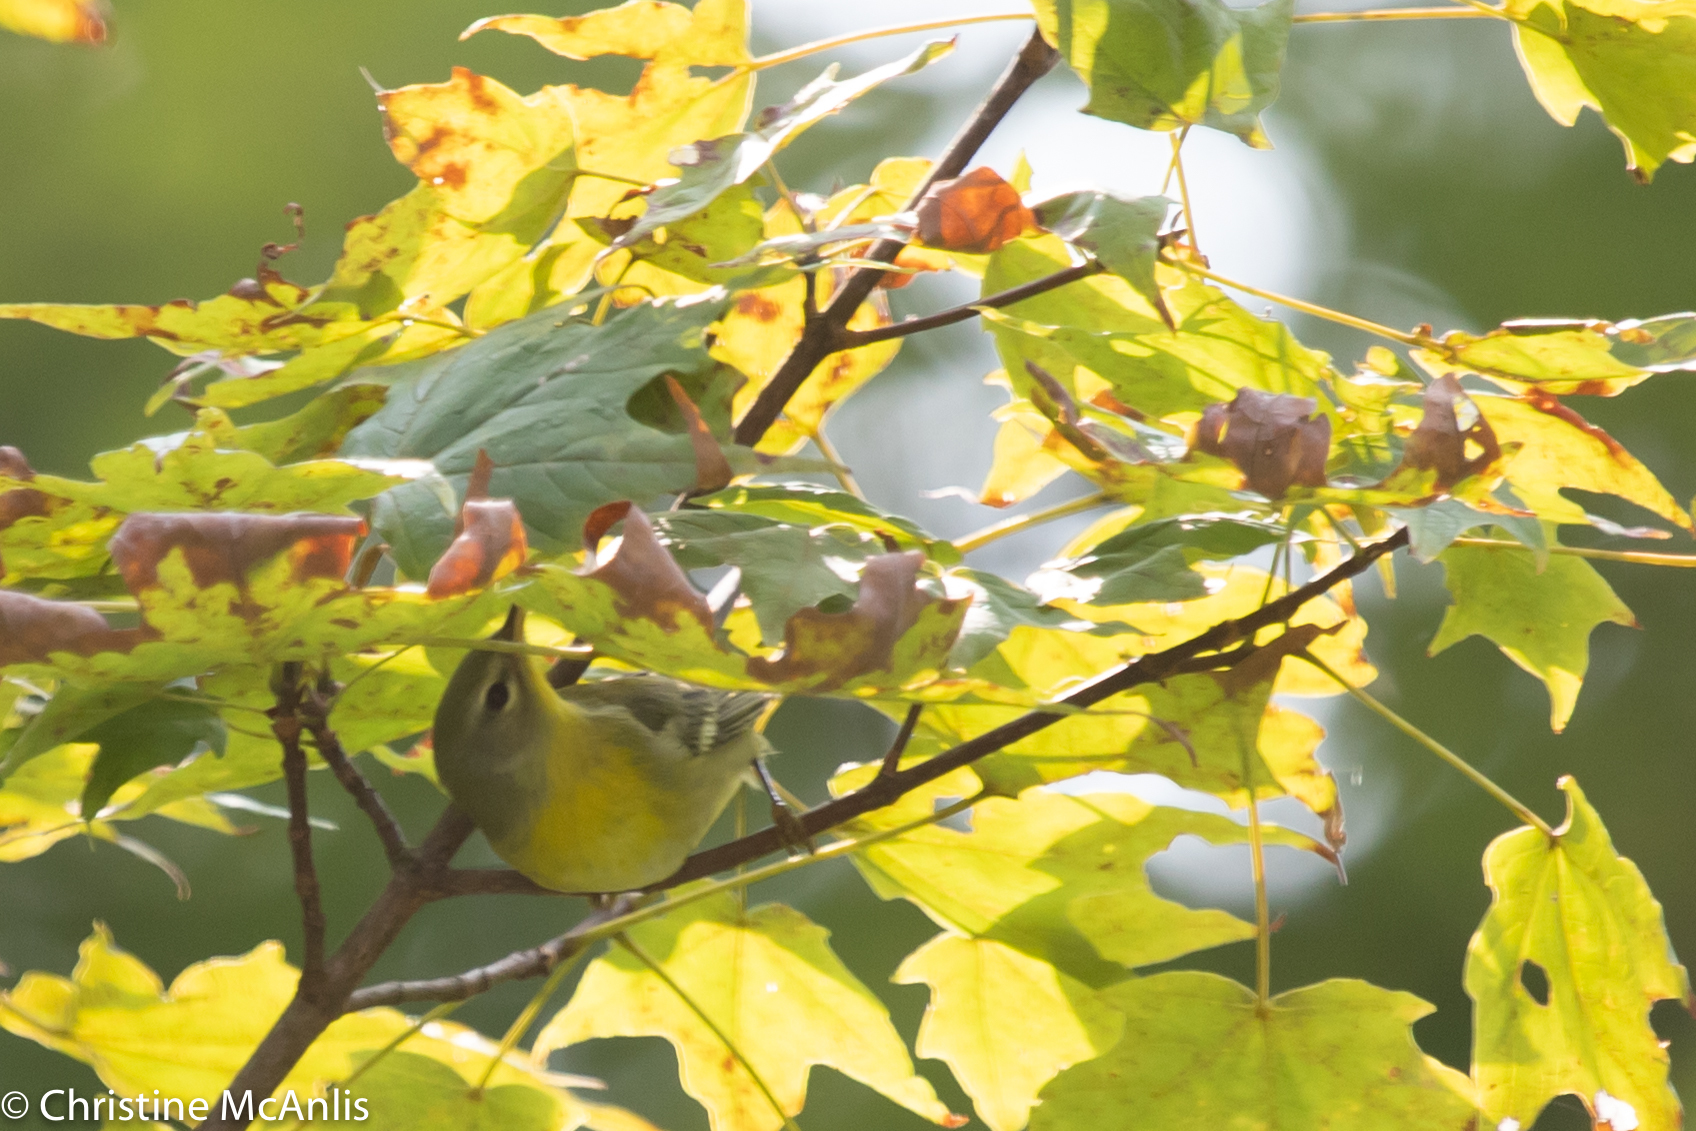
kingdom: Animalia
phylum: Chordata
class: Aves
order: Passeriformes
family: Parulidae
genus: Setophaga
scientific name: Setophaga americana
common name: Northern parula
